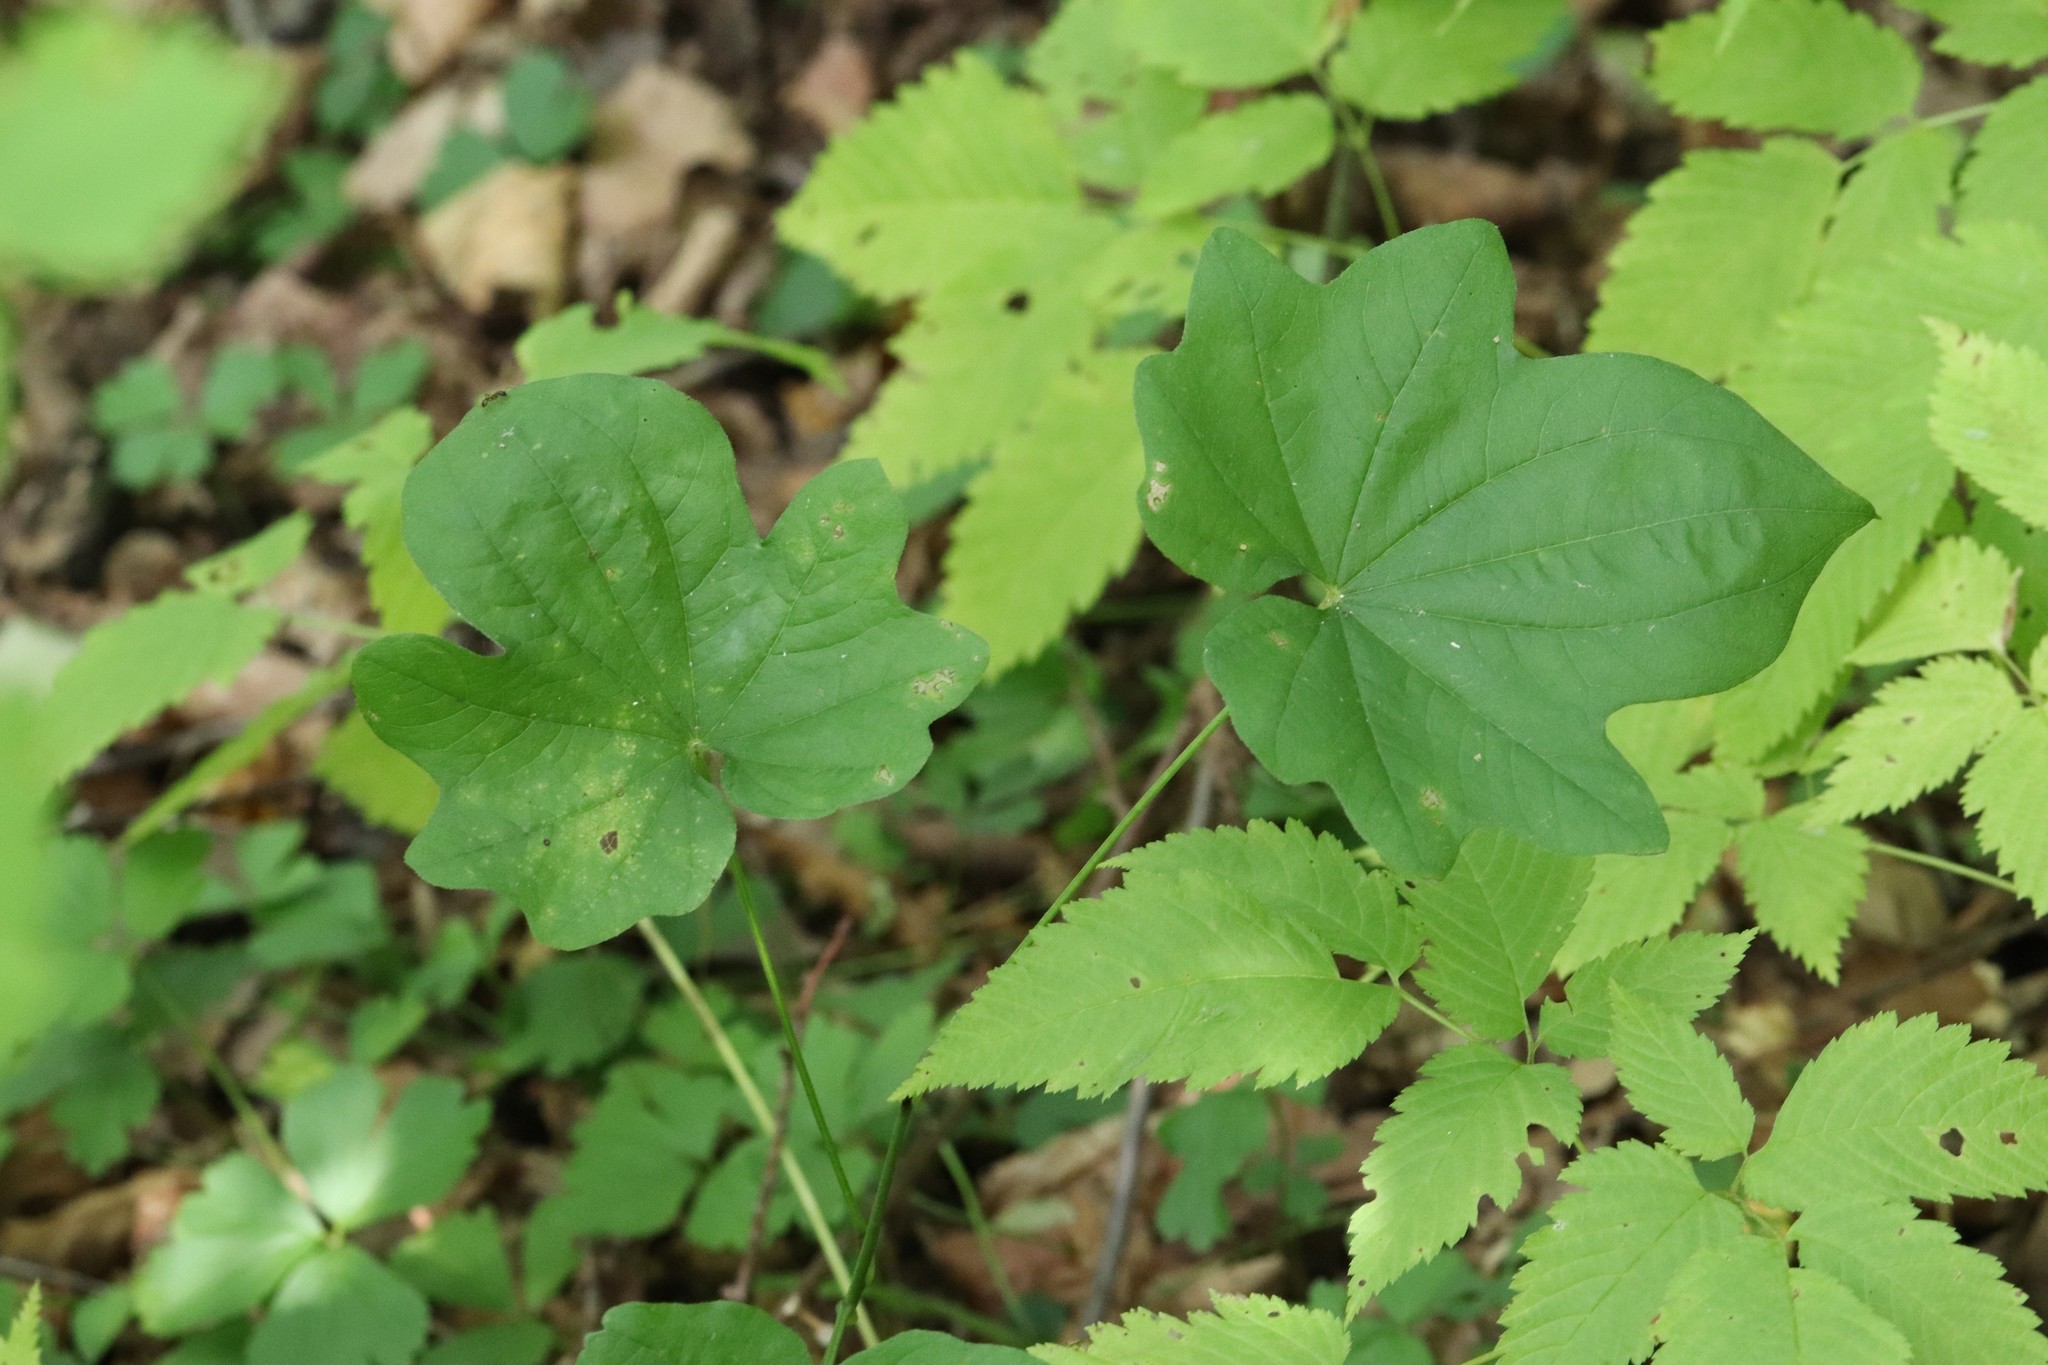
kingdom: Plantae
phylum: Tracheophyta
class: Liliopsida
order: Dioscoreales
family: Dioscoreaceae
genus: Dioscorea
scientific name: Dioscorea nipponica
